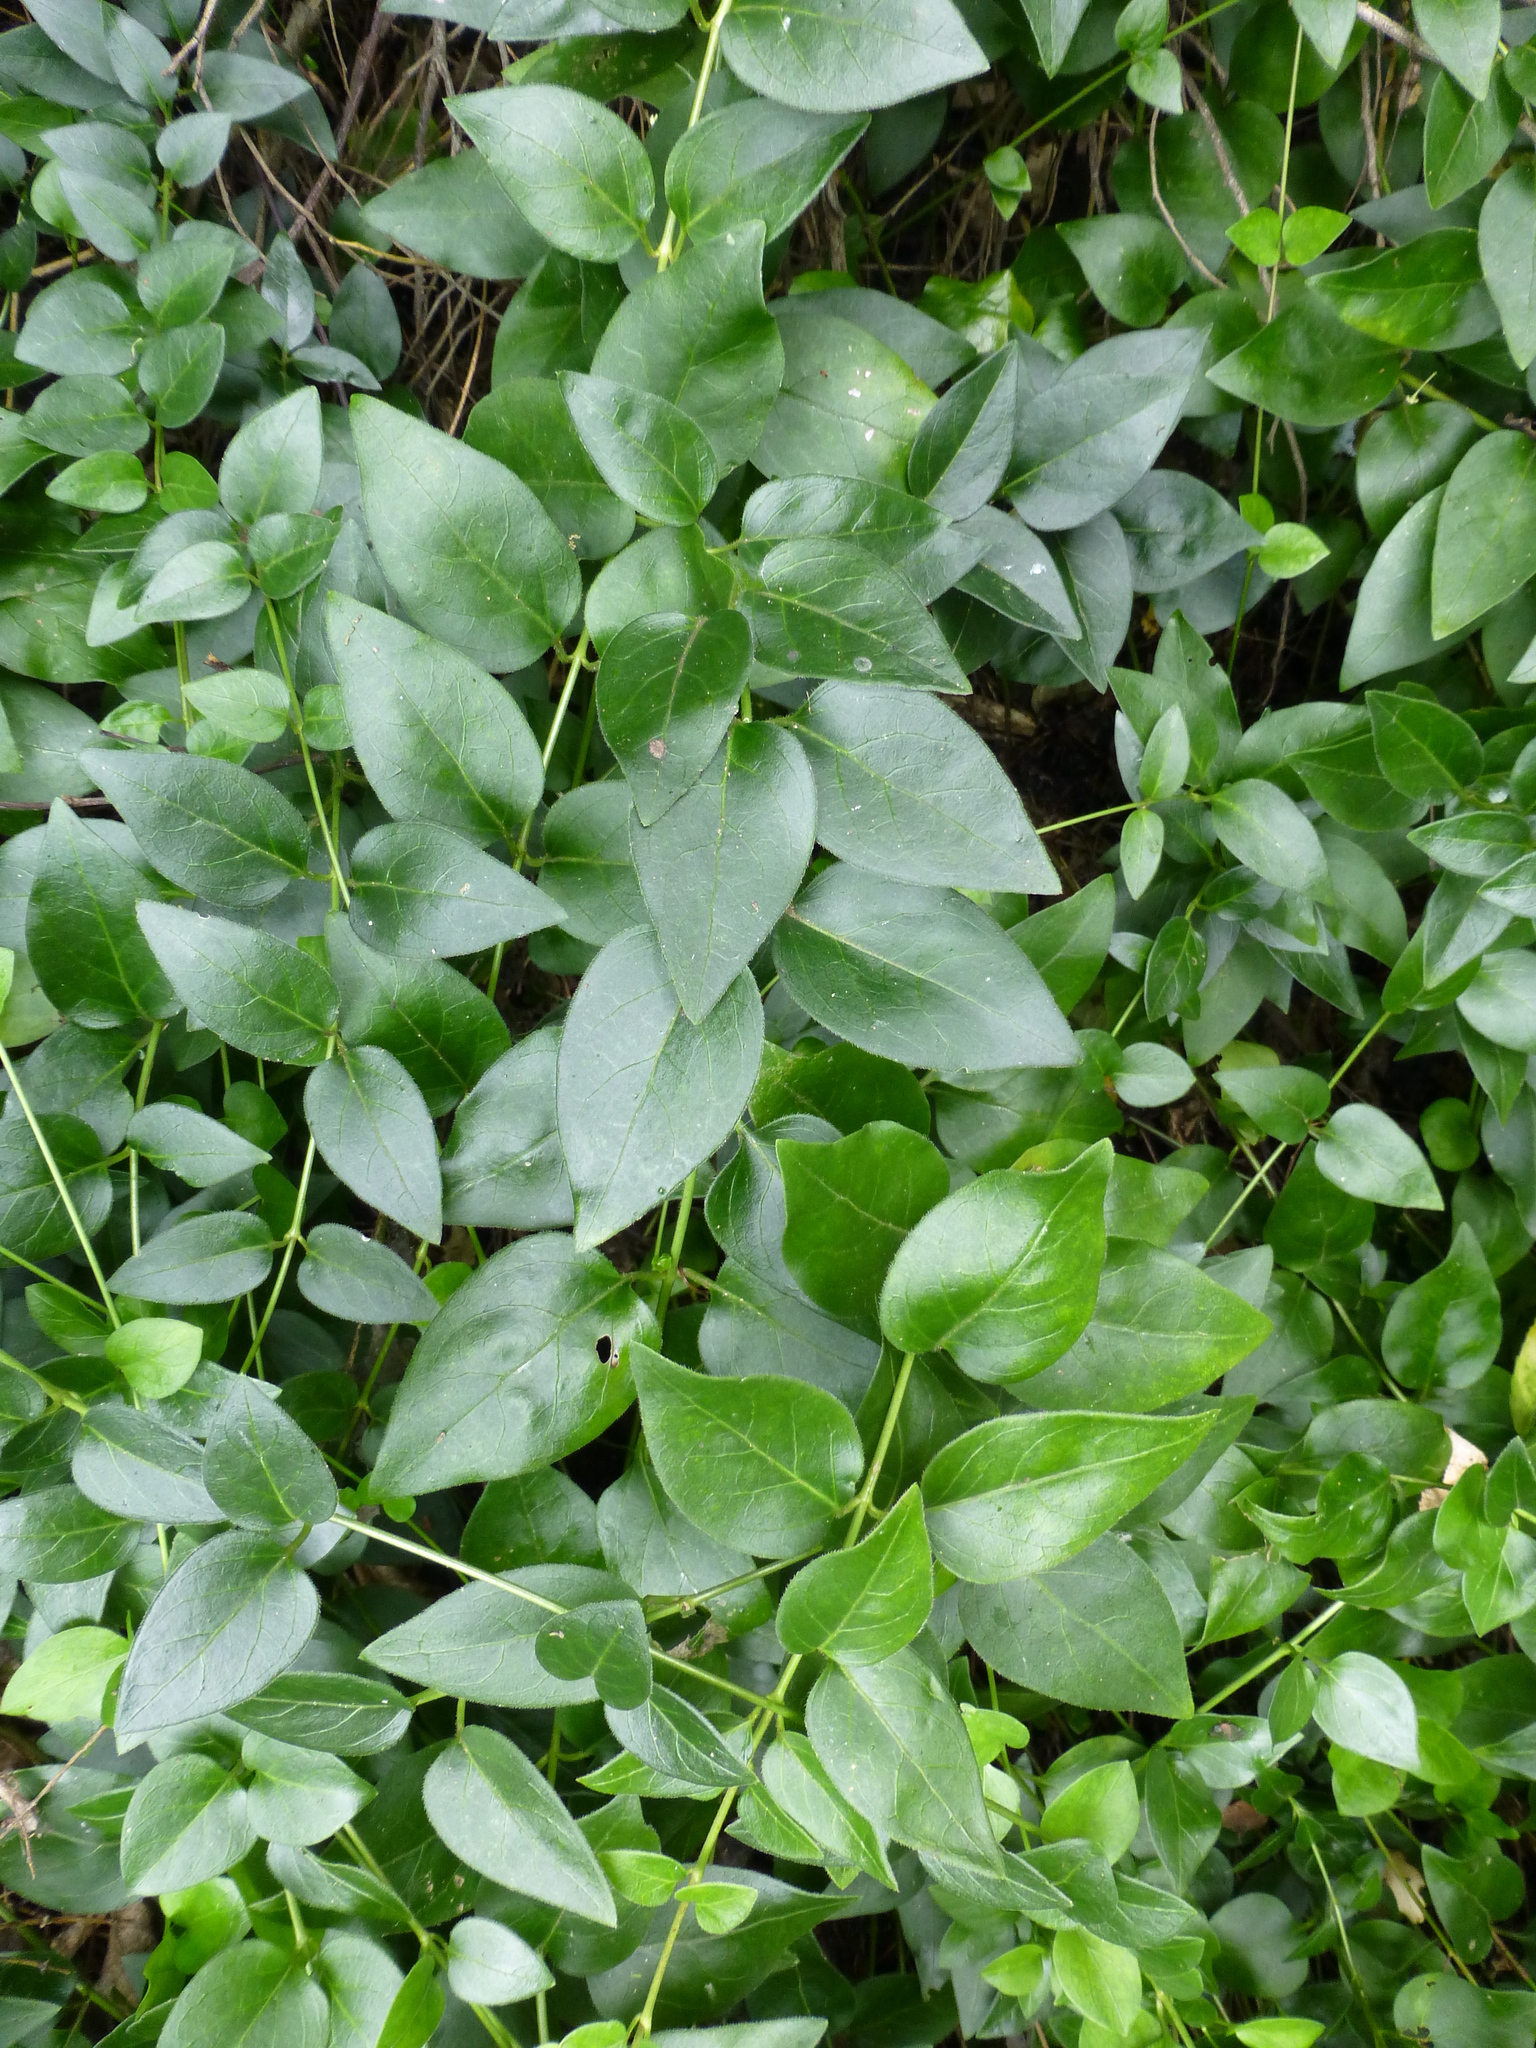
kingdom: Plantae
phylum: Tracheophyta
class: Magnoliopsida
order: Gentianales
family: Apocynaceae
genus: Vinca
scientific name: Vinca major
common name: Greater periwinkle
